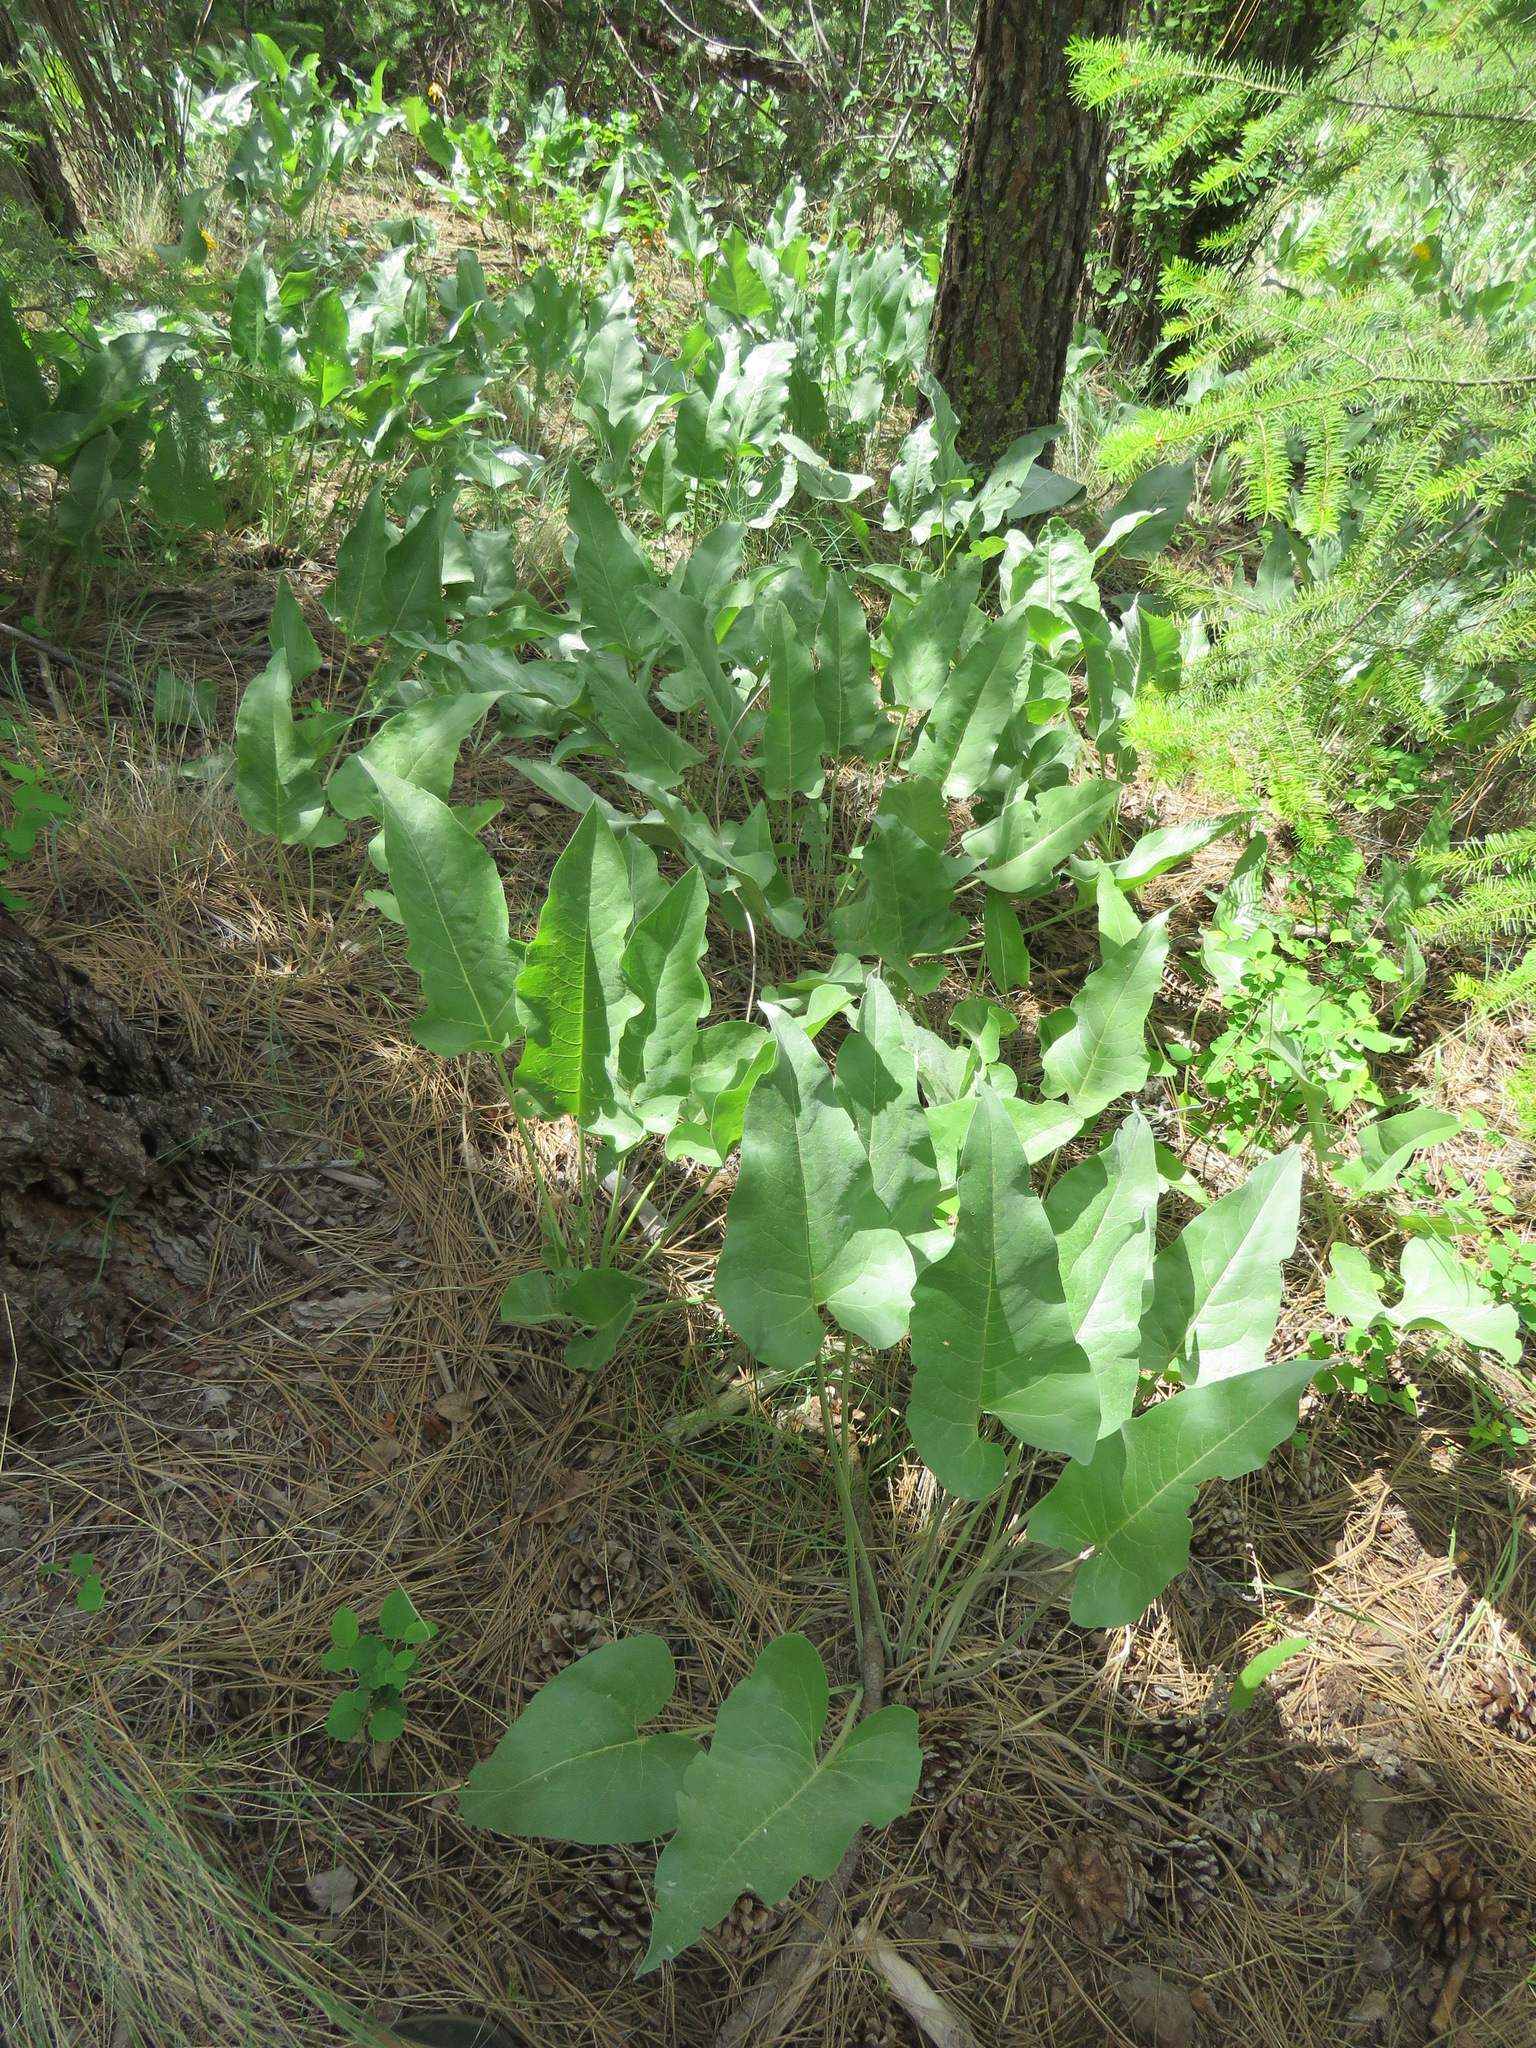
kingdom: Plantae
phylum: Tracheophyta
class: Magnoliopsida
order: Asterales
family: Asteraceae
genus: Wyethia
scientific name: Wyethia sagittata
